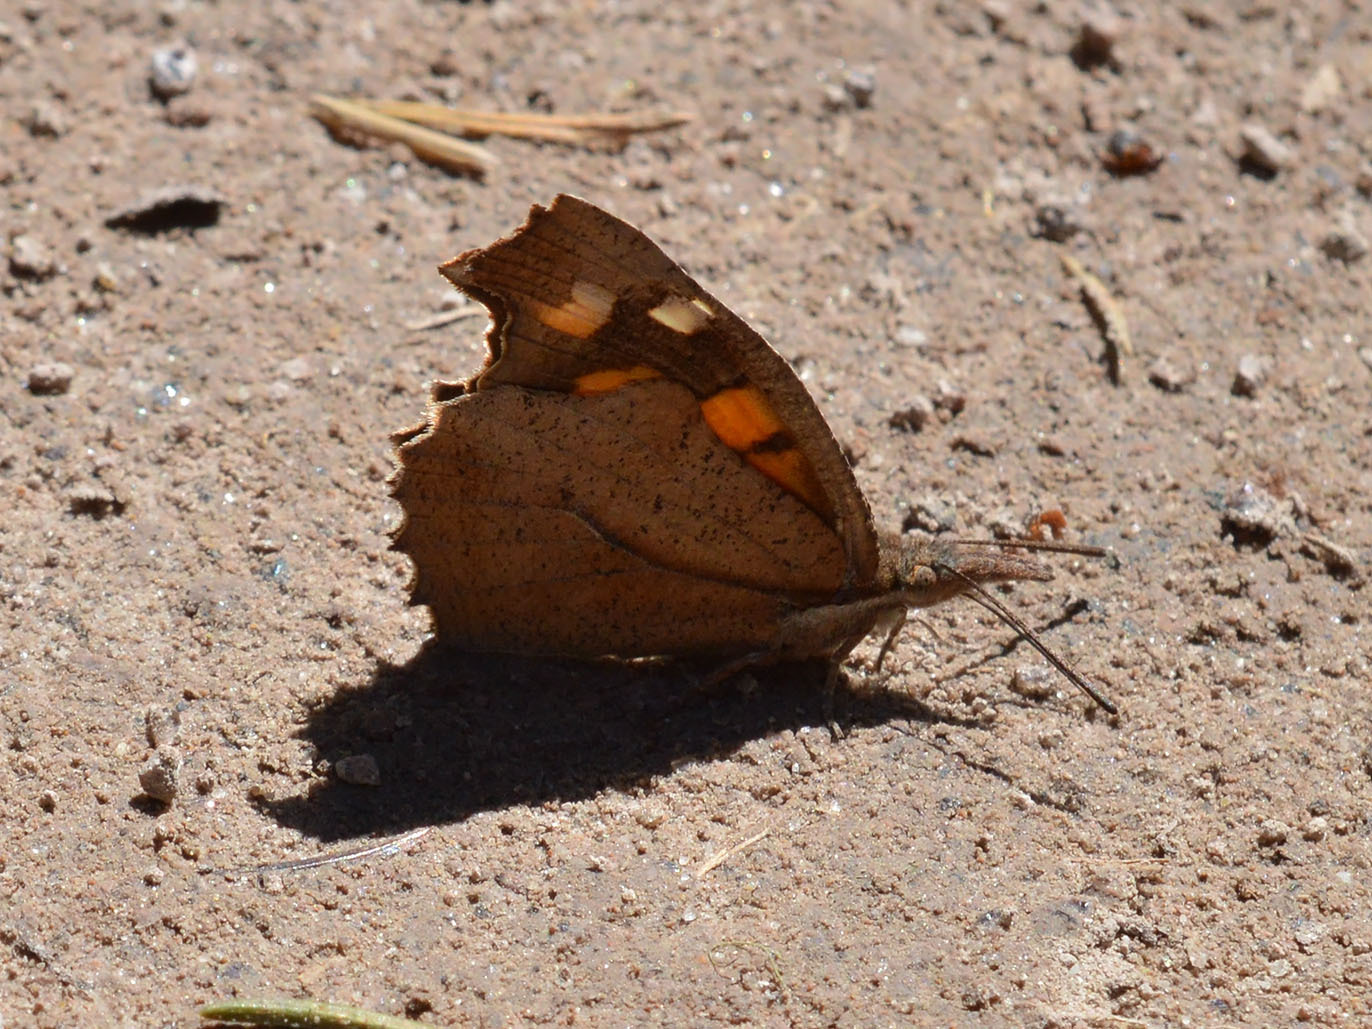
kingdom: Animalia
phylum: Arthropoda
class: Insecta
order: Lepidoptera
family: Nymphalidae
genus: Libythea
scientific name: Libythea celtis
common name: Nettle-tree butterfly
